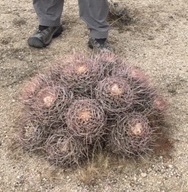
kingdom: Plantae
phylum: Tracheophyta
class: Magnoliopsida
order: Caryophyllales
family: Cactaceae
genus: Echinocactus
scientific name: Echinocactus polycephalus
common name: Cottontop cactus
